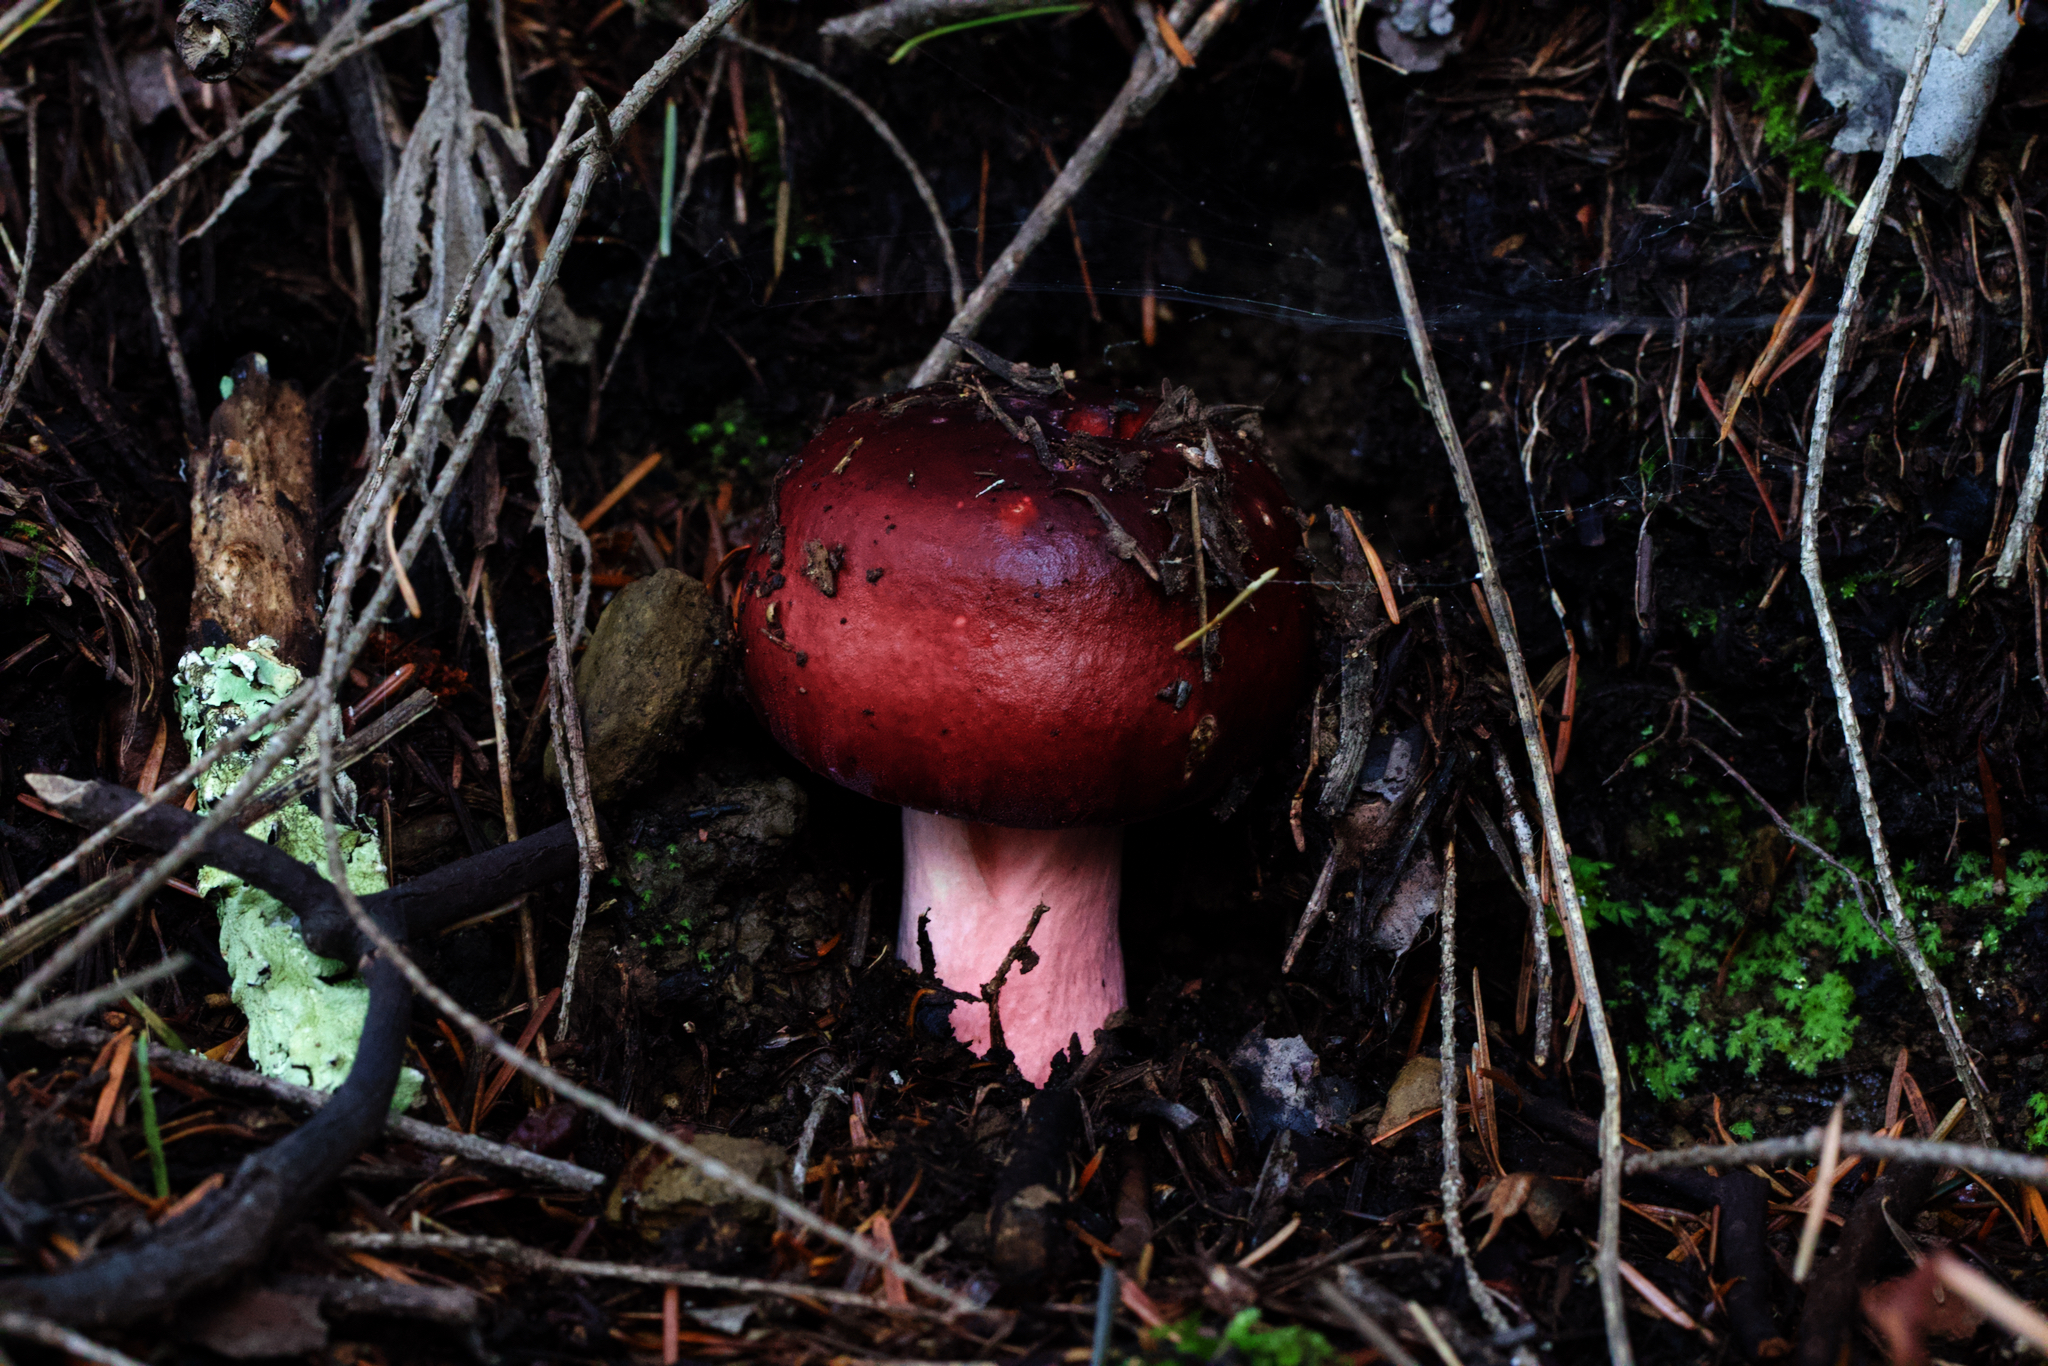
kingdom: Fungi
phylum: Basidiomycota
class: Agaricomycetes
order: Russulales
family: Russulaceae
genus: Russula
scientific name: Russula xerampelina
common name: Crab brittlegill
